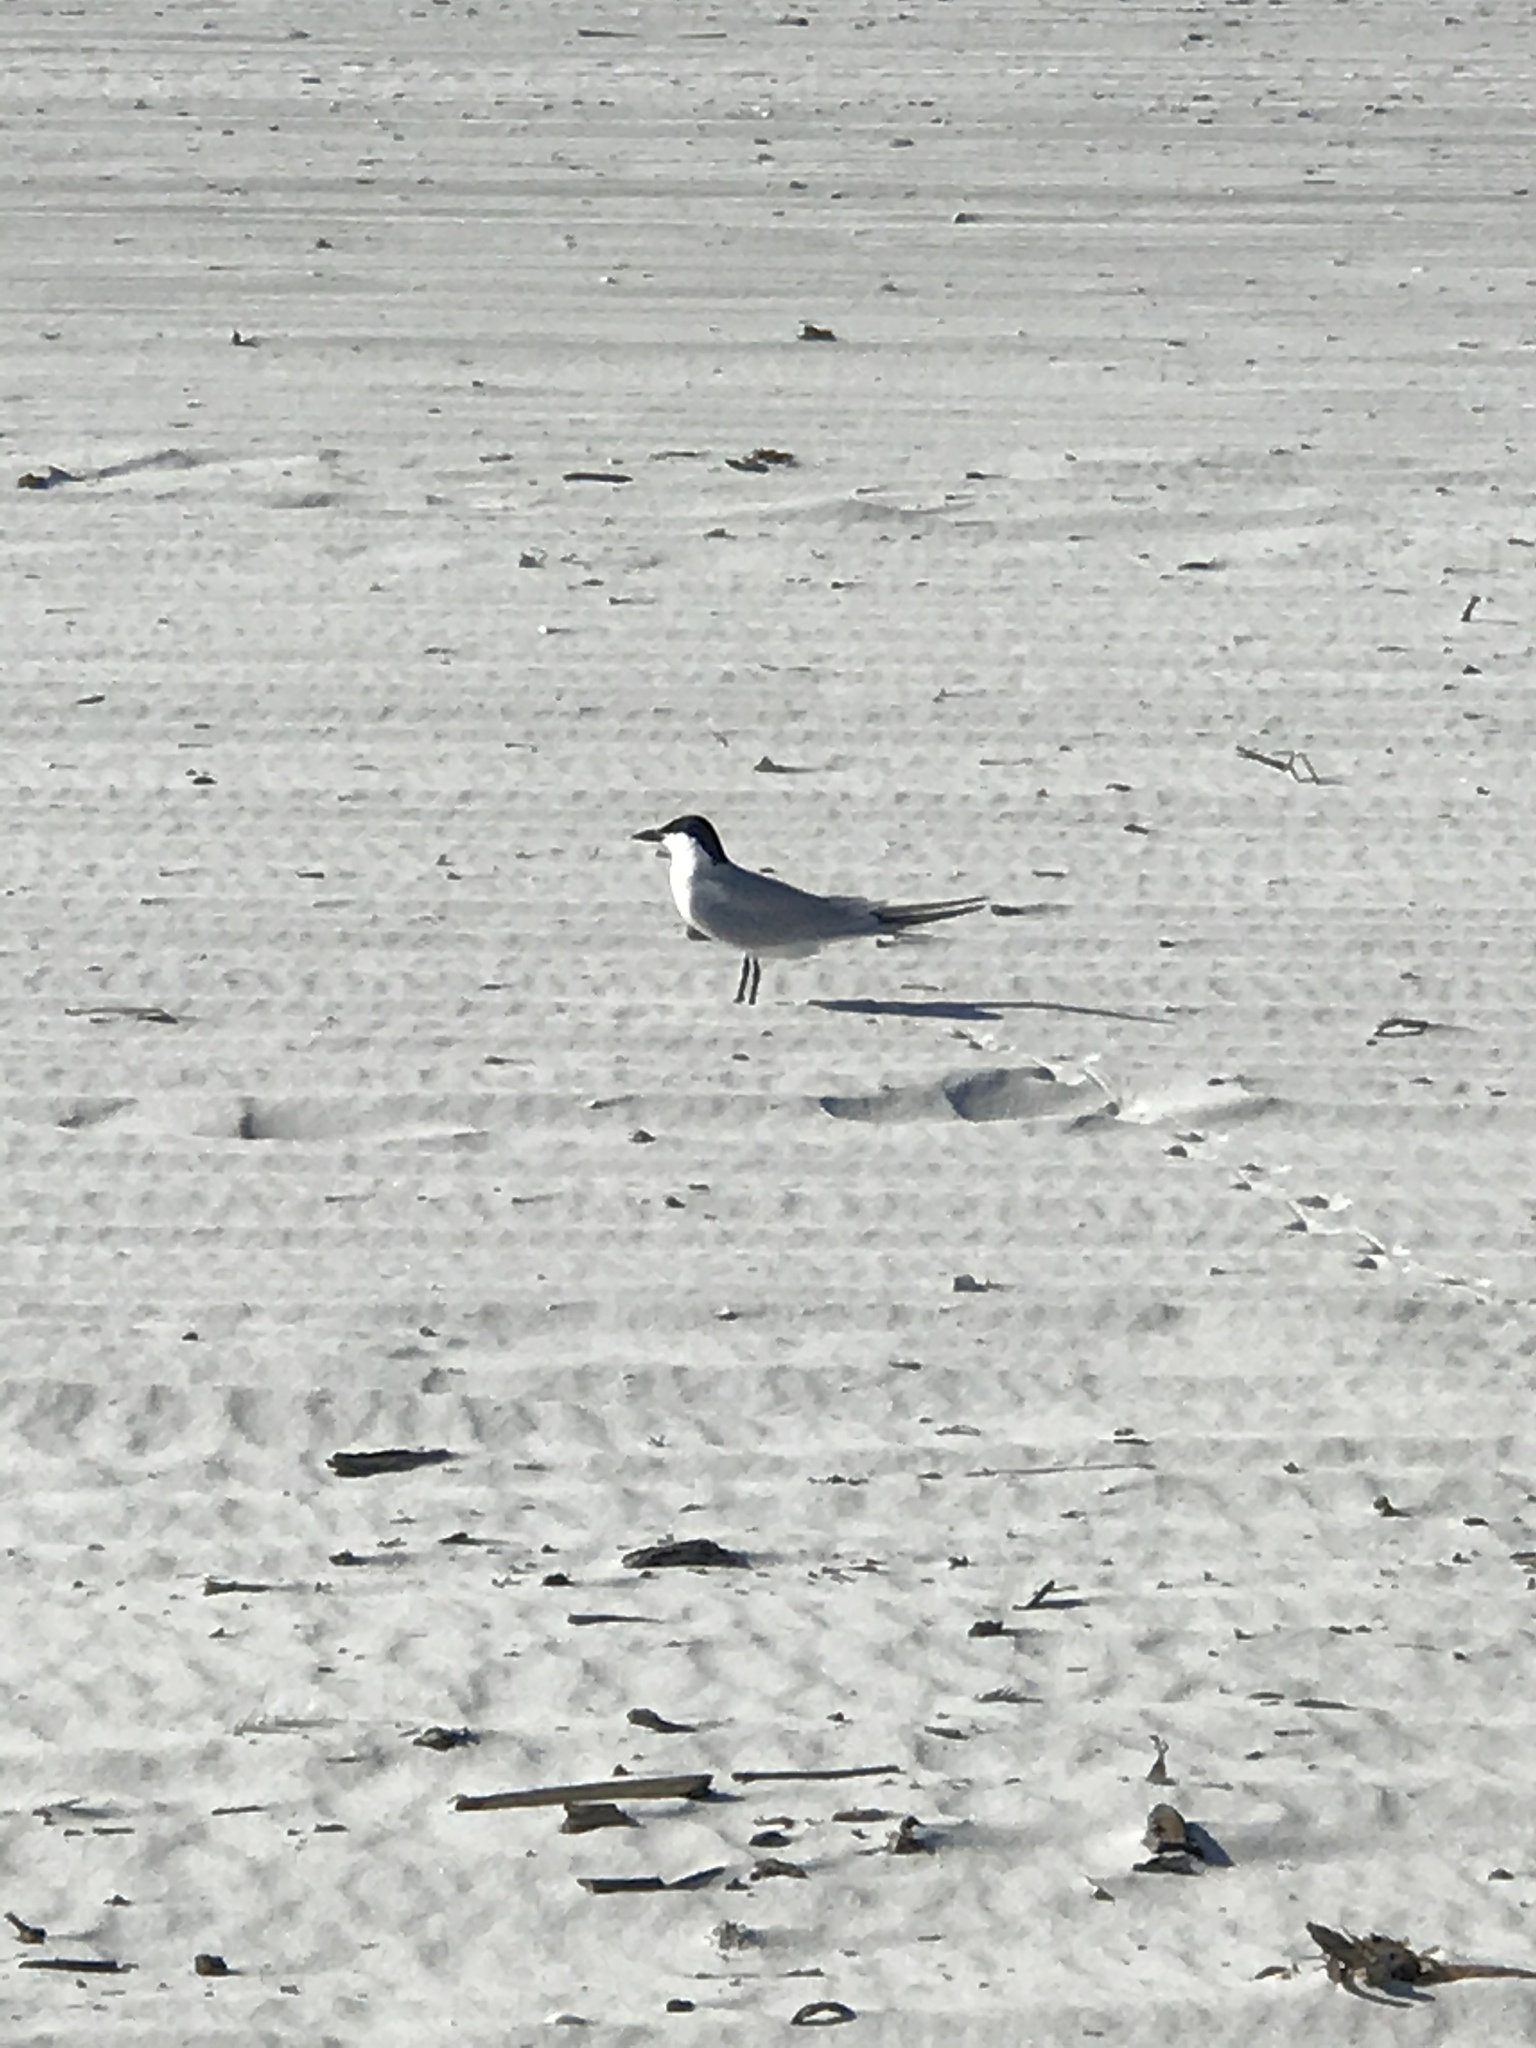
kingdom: Animalia
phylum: Chordata
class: Aves
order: Charadriiformes
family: Laridae
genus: Gelochelidon
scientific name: Gelochelidon nilotica
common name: Gull-billed tern
